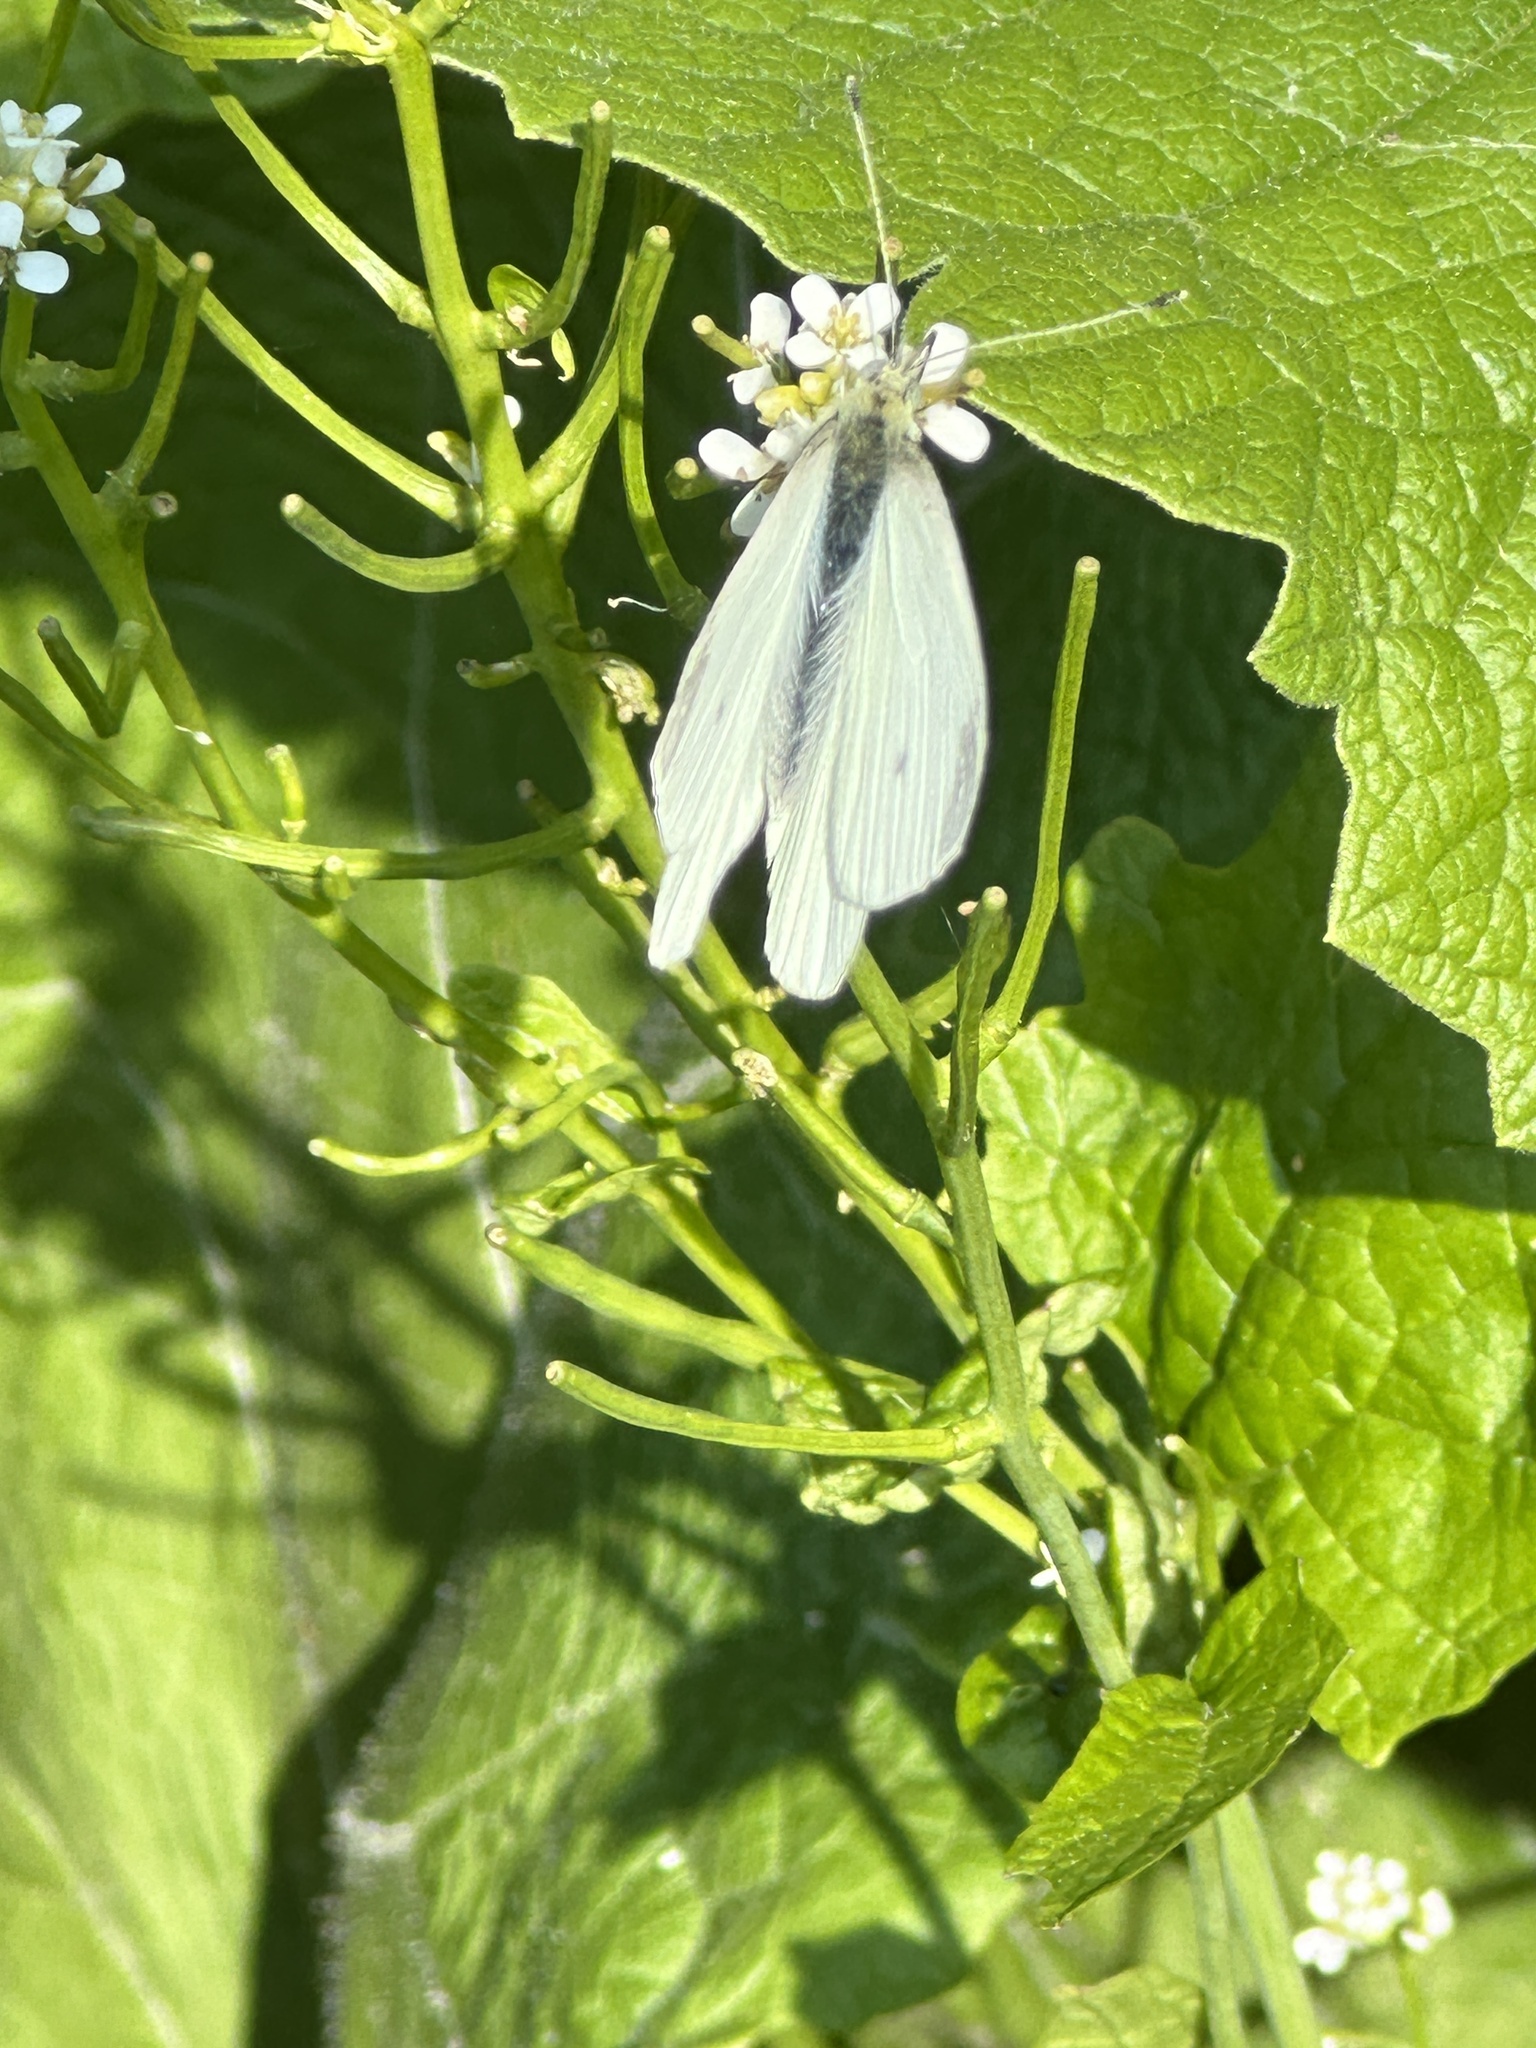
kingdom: Animalia
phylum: Arthropoda
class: Insecta
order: Lepidoptera
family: Pieridae
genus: Pieris
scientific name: Pieris rapae
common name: Small white
